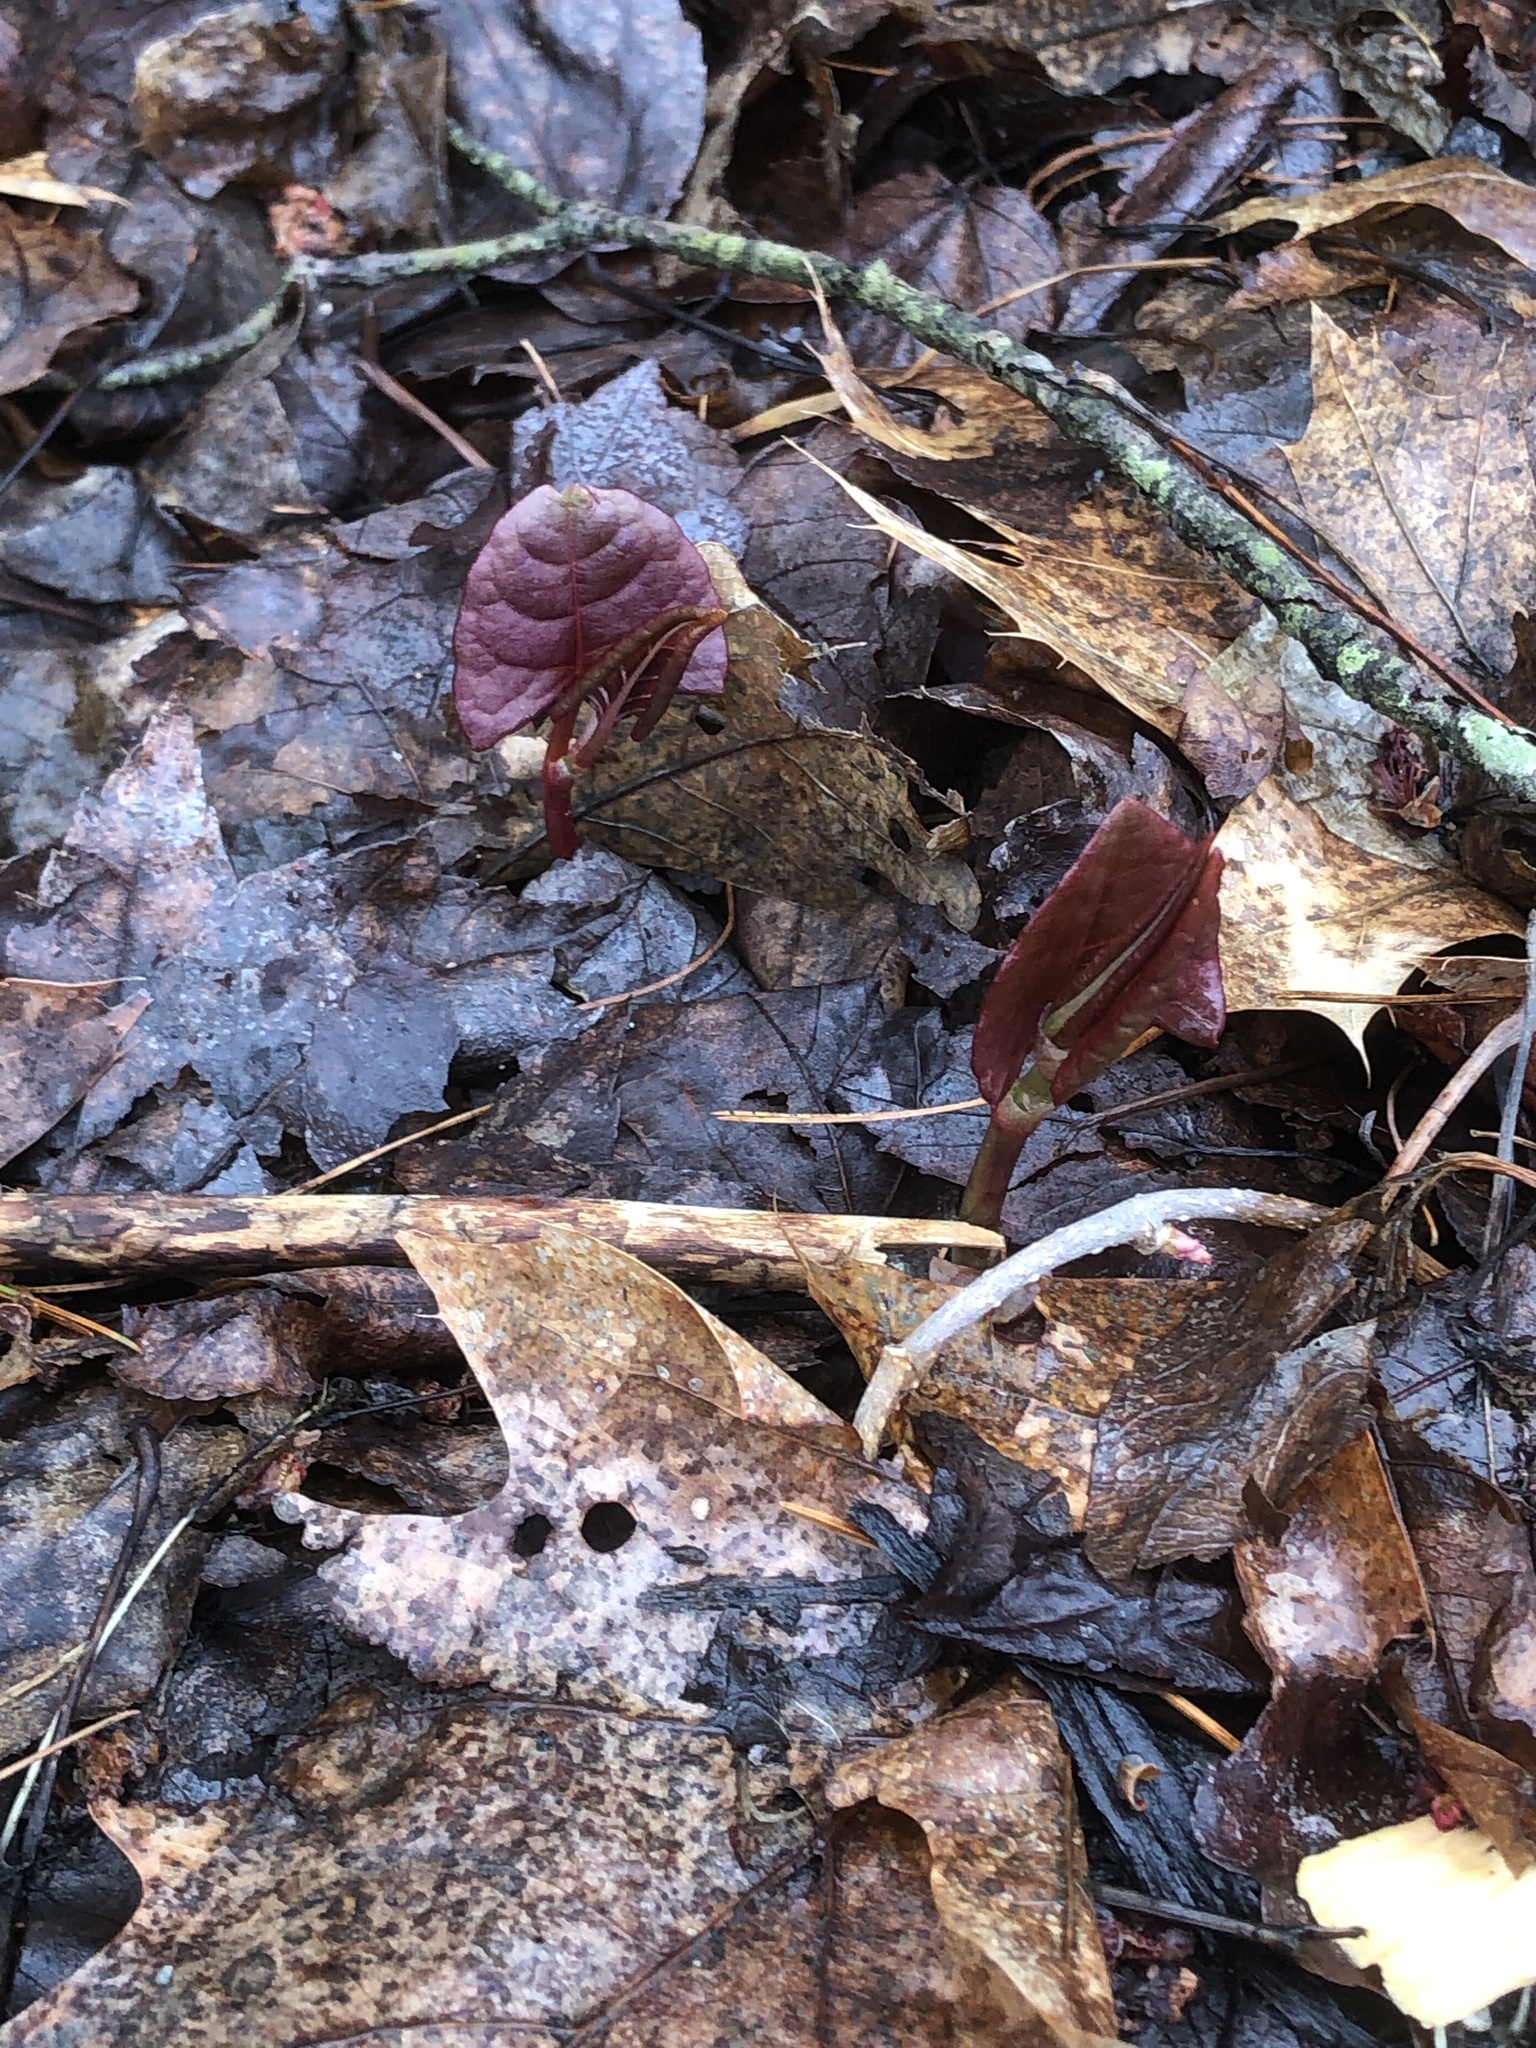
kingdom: Plantae
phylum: Tracheophyta
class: Magnoliopsida
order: Caryophyllales
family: Polygonaceae
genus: Reynoutria
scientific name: Reynoutria japonica
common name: Japanese knotweed
